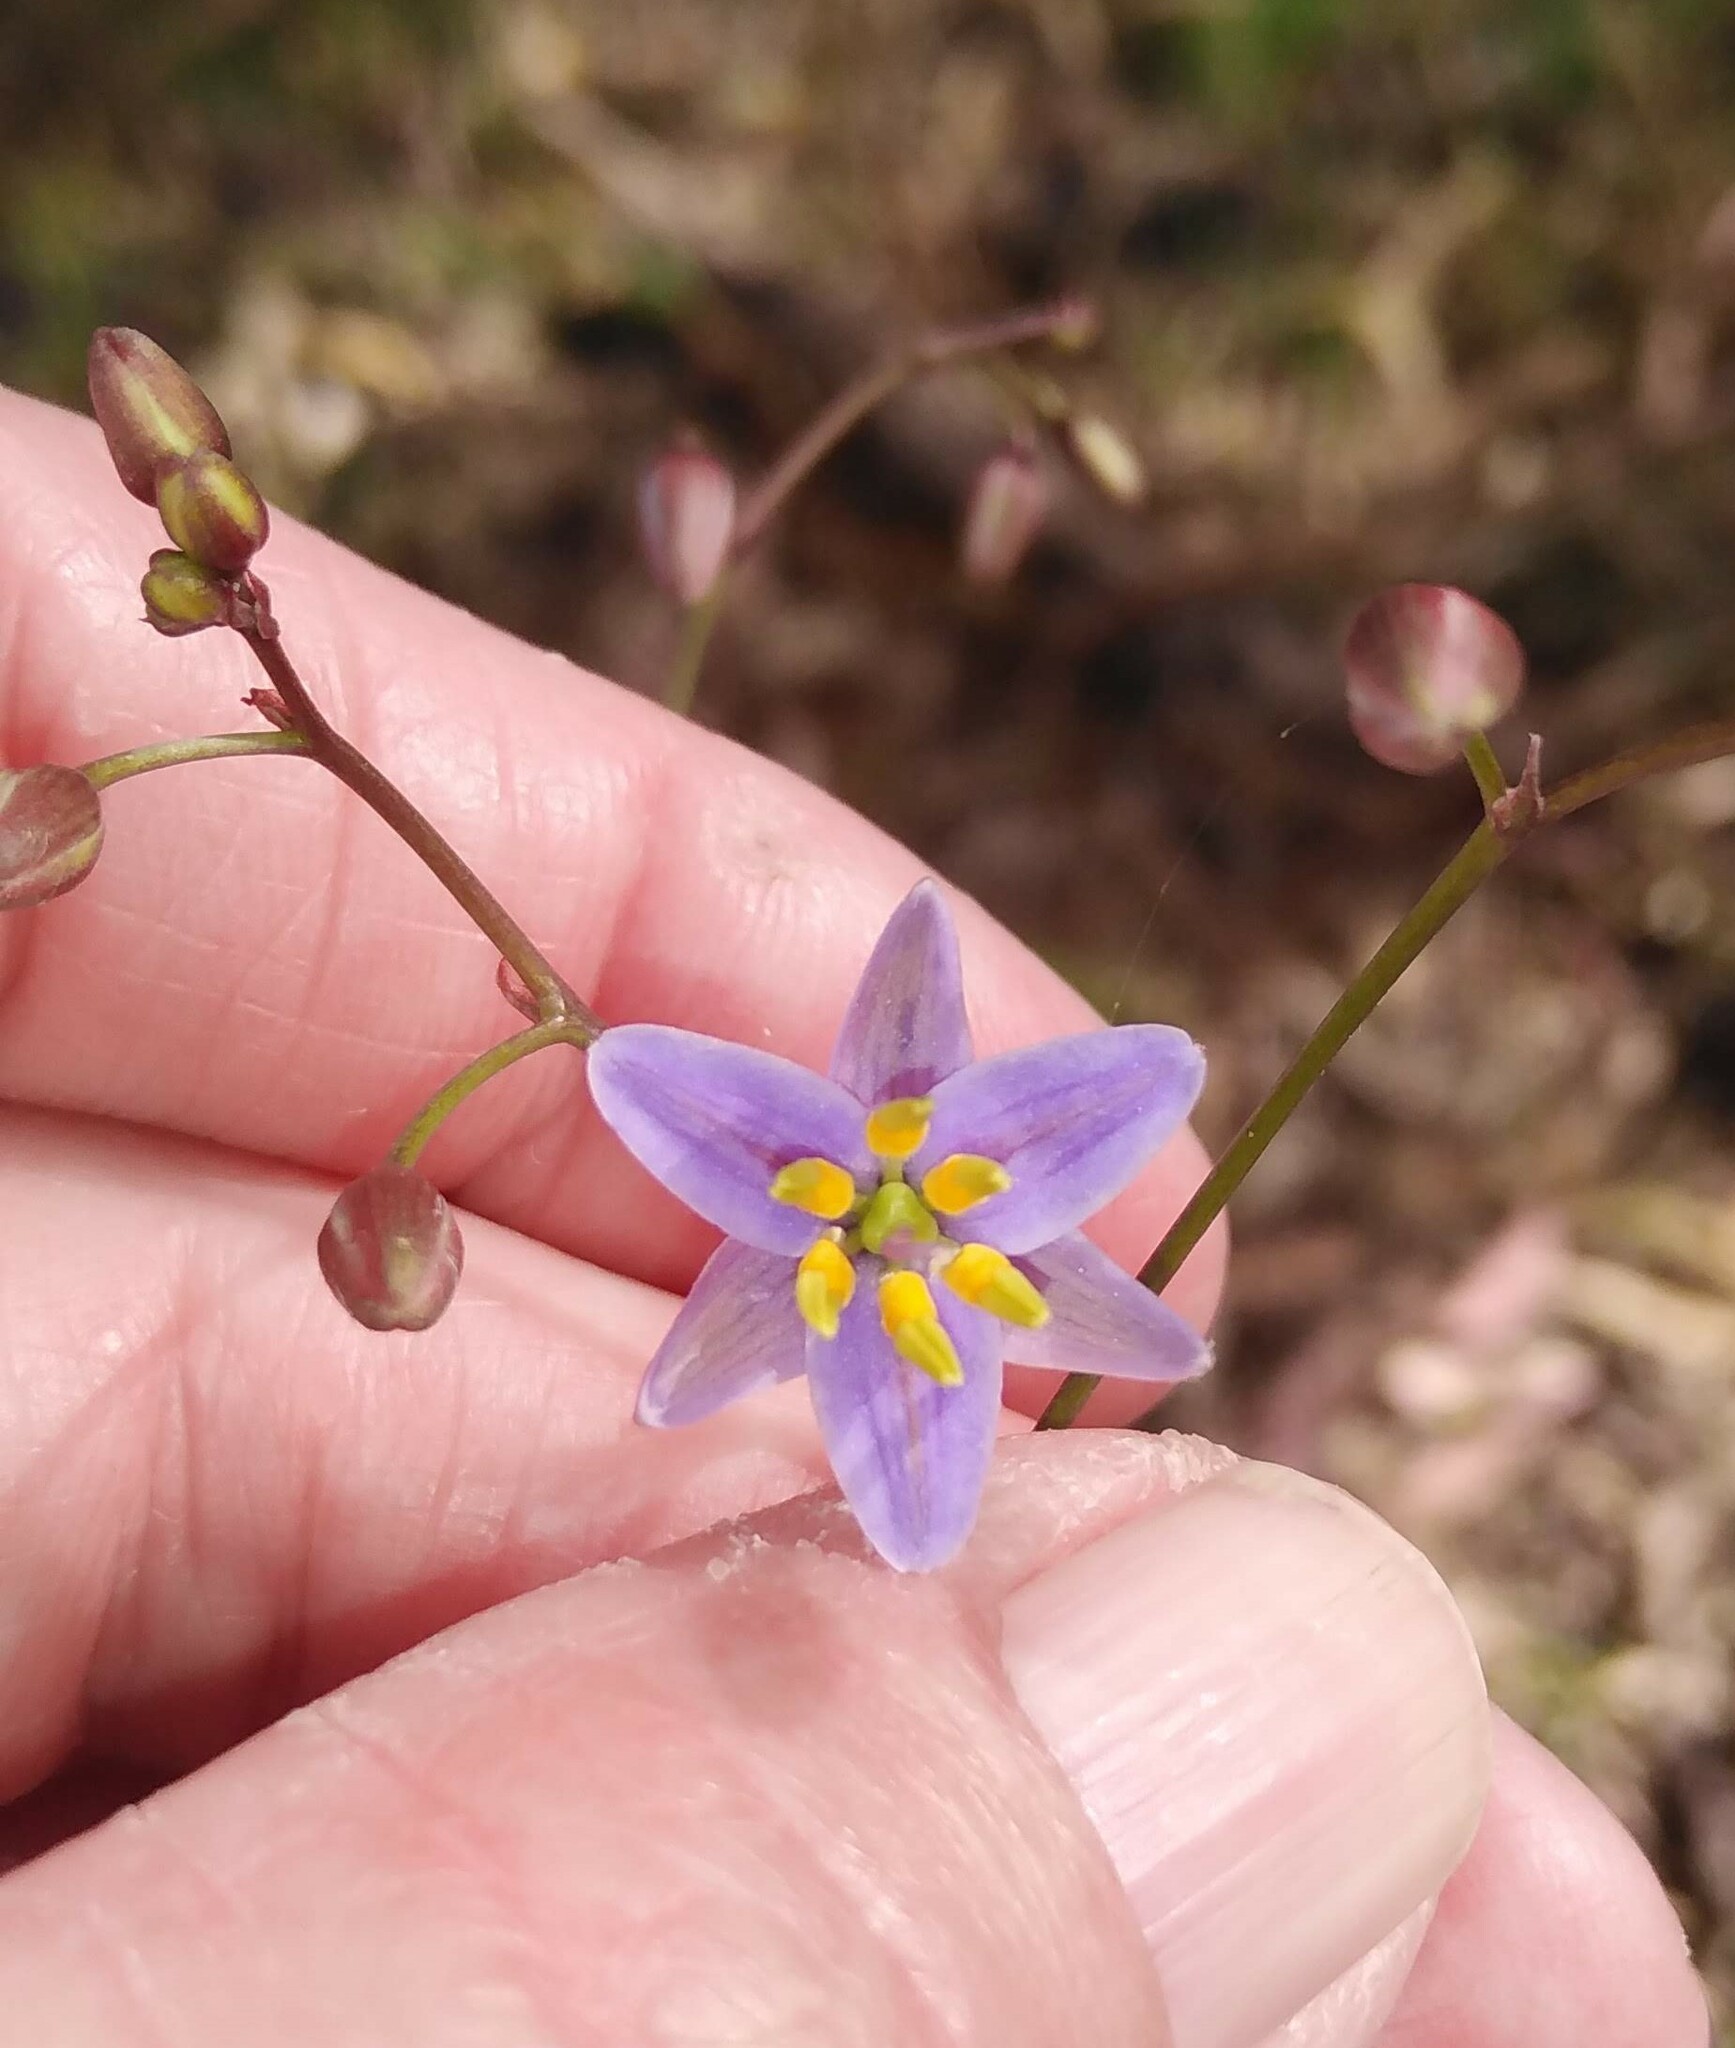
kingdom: Plantae
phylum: Tracheophyta
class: Liliopsida
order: Asparagales
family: Asphodelaceae
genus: Dianella
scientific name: Dianella longifolia
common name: Blue flax-lily
